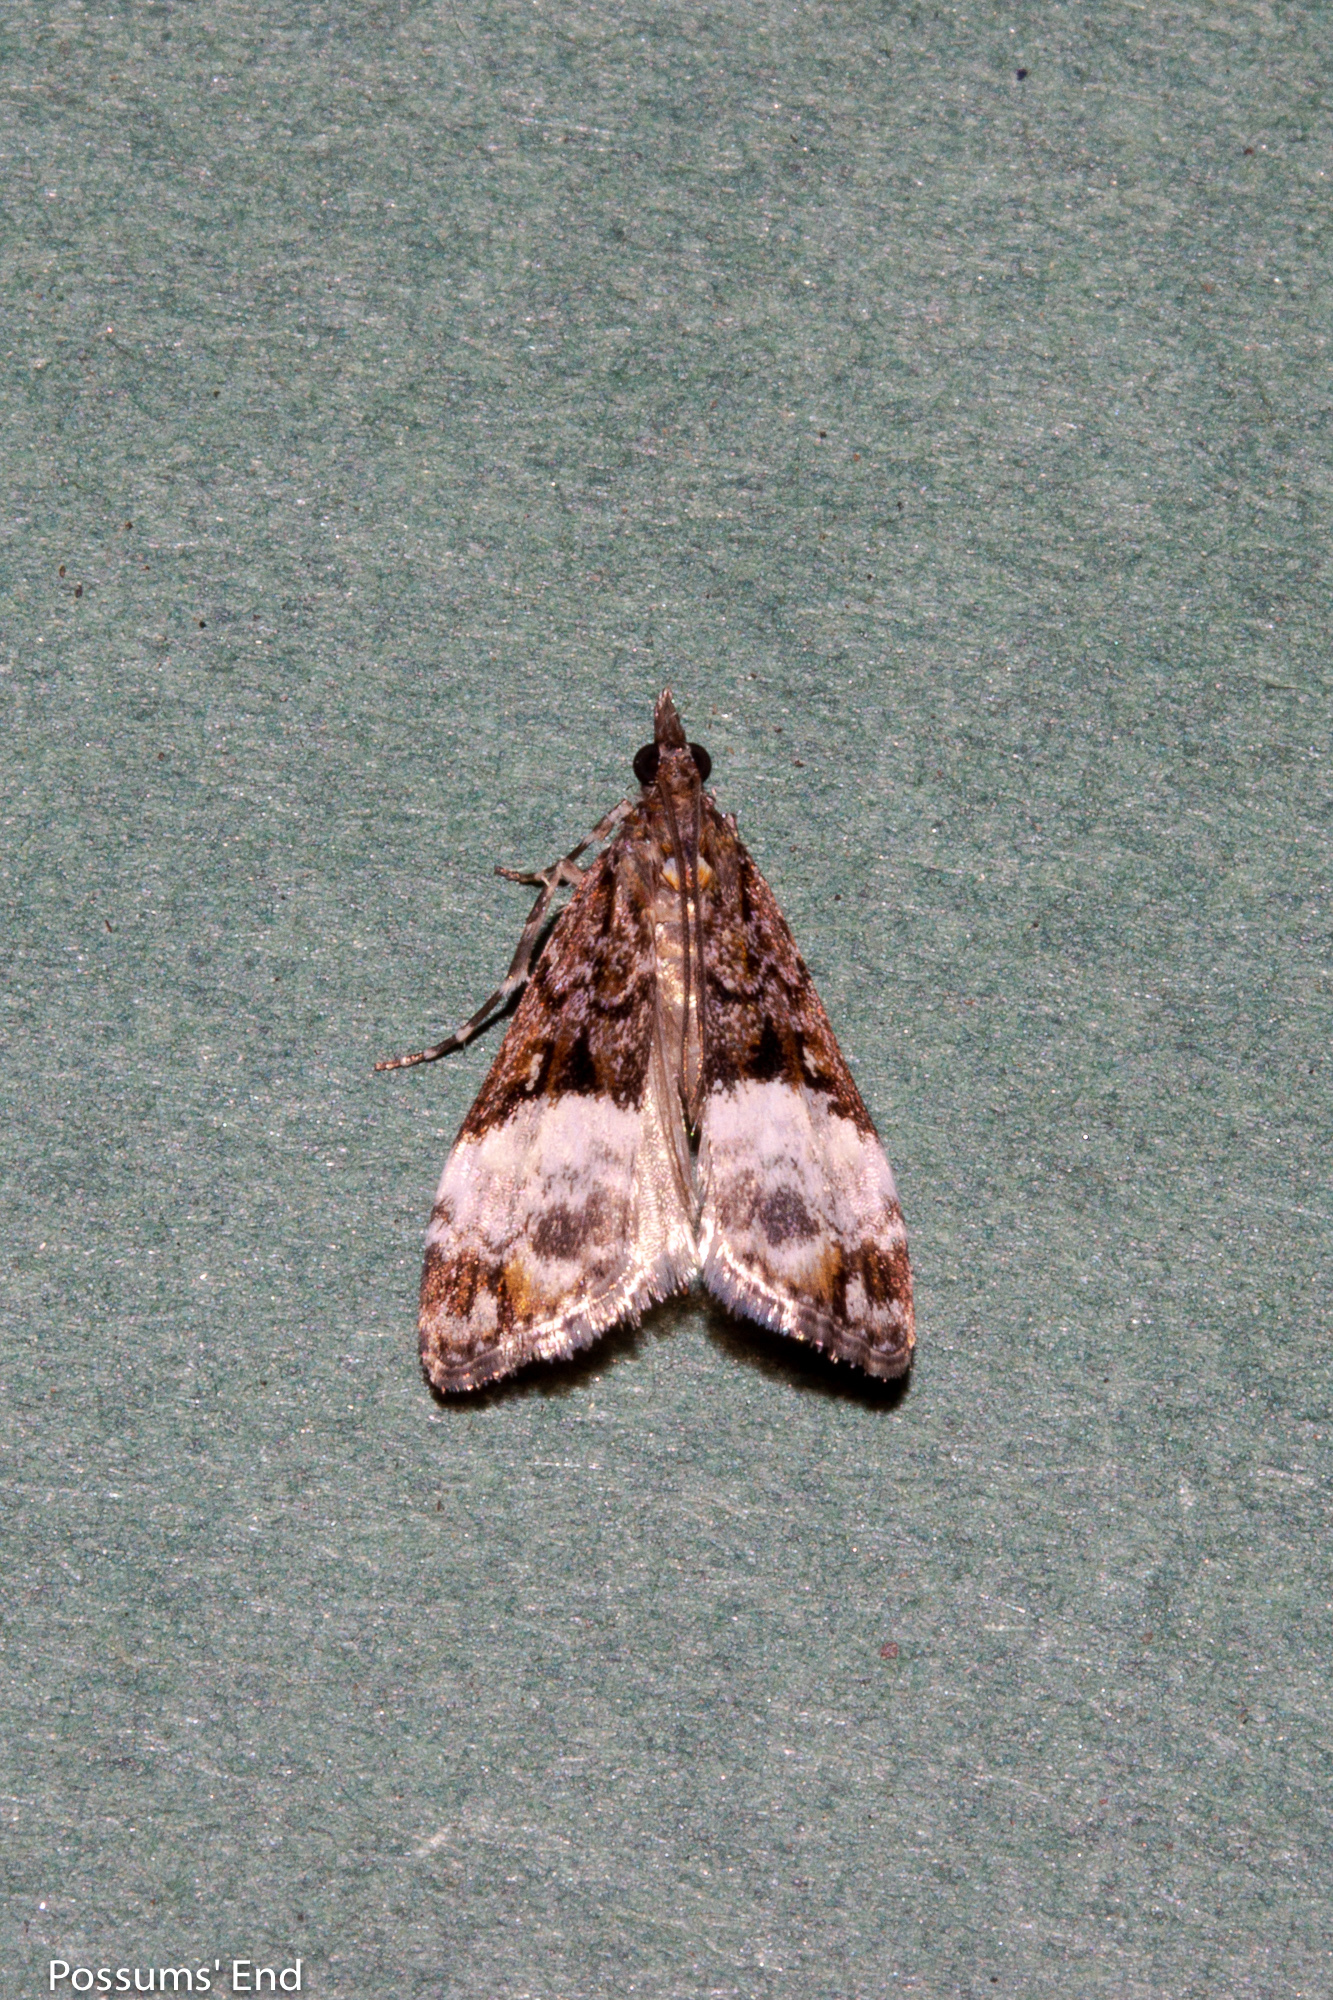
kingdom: Animalia
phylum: Arthropoda
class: Insecta
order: Lepidoptera
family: Crambidae
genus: Scoparia
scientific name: Scoparia minusculalis
